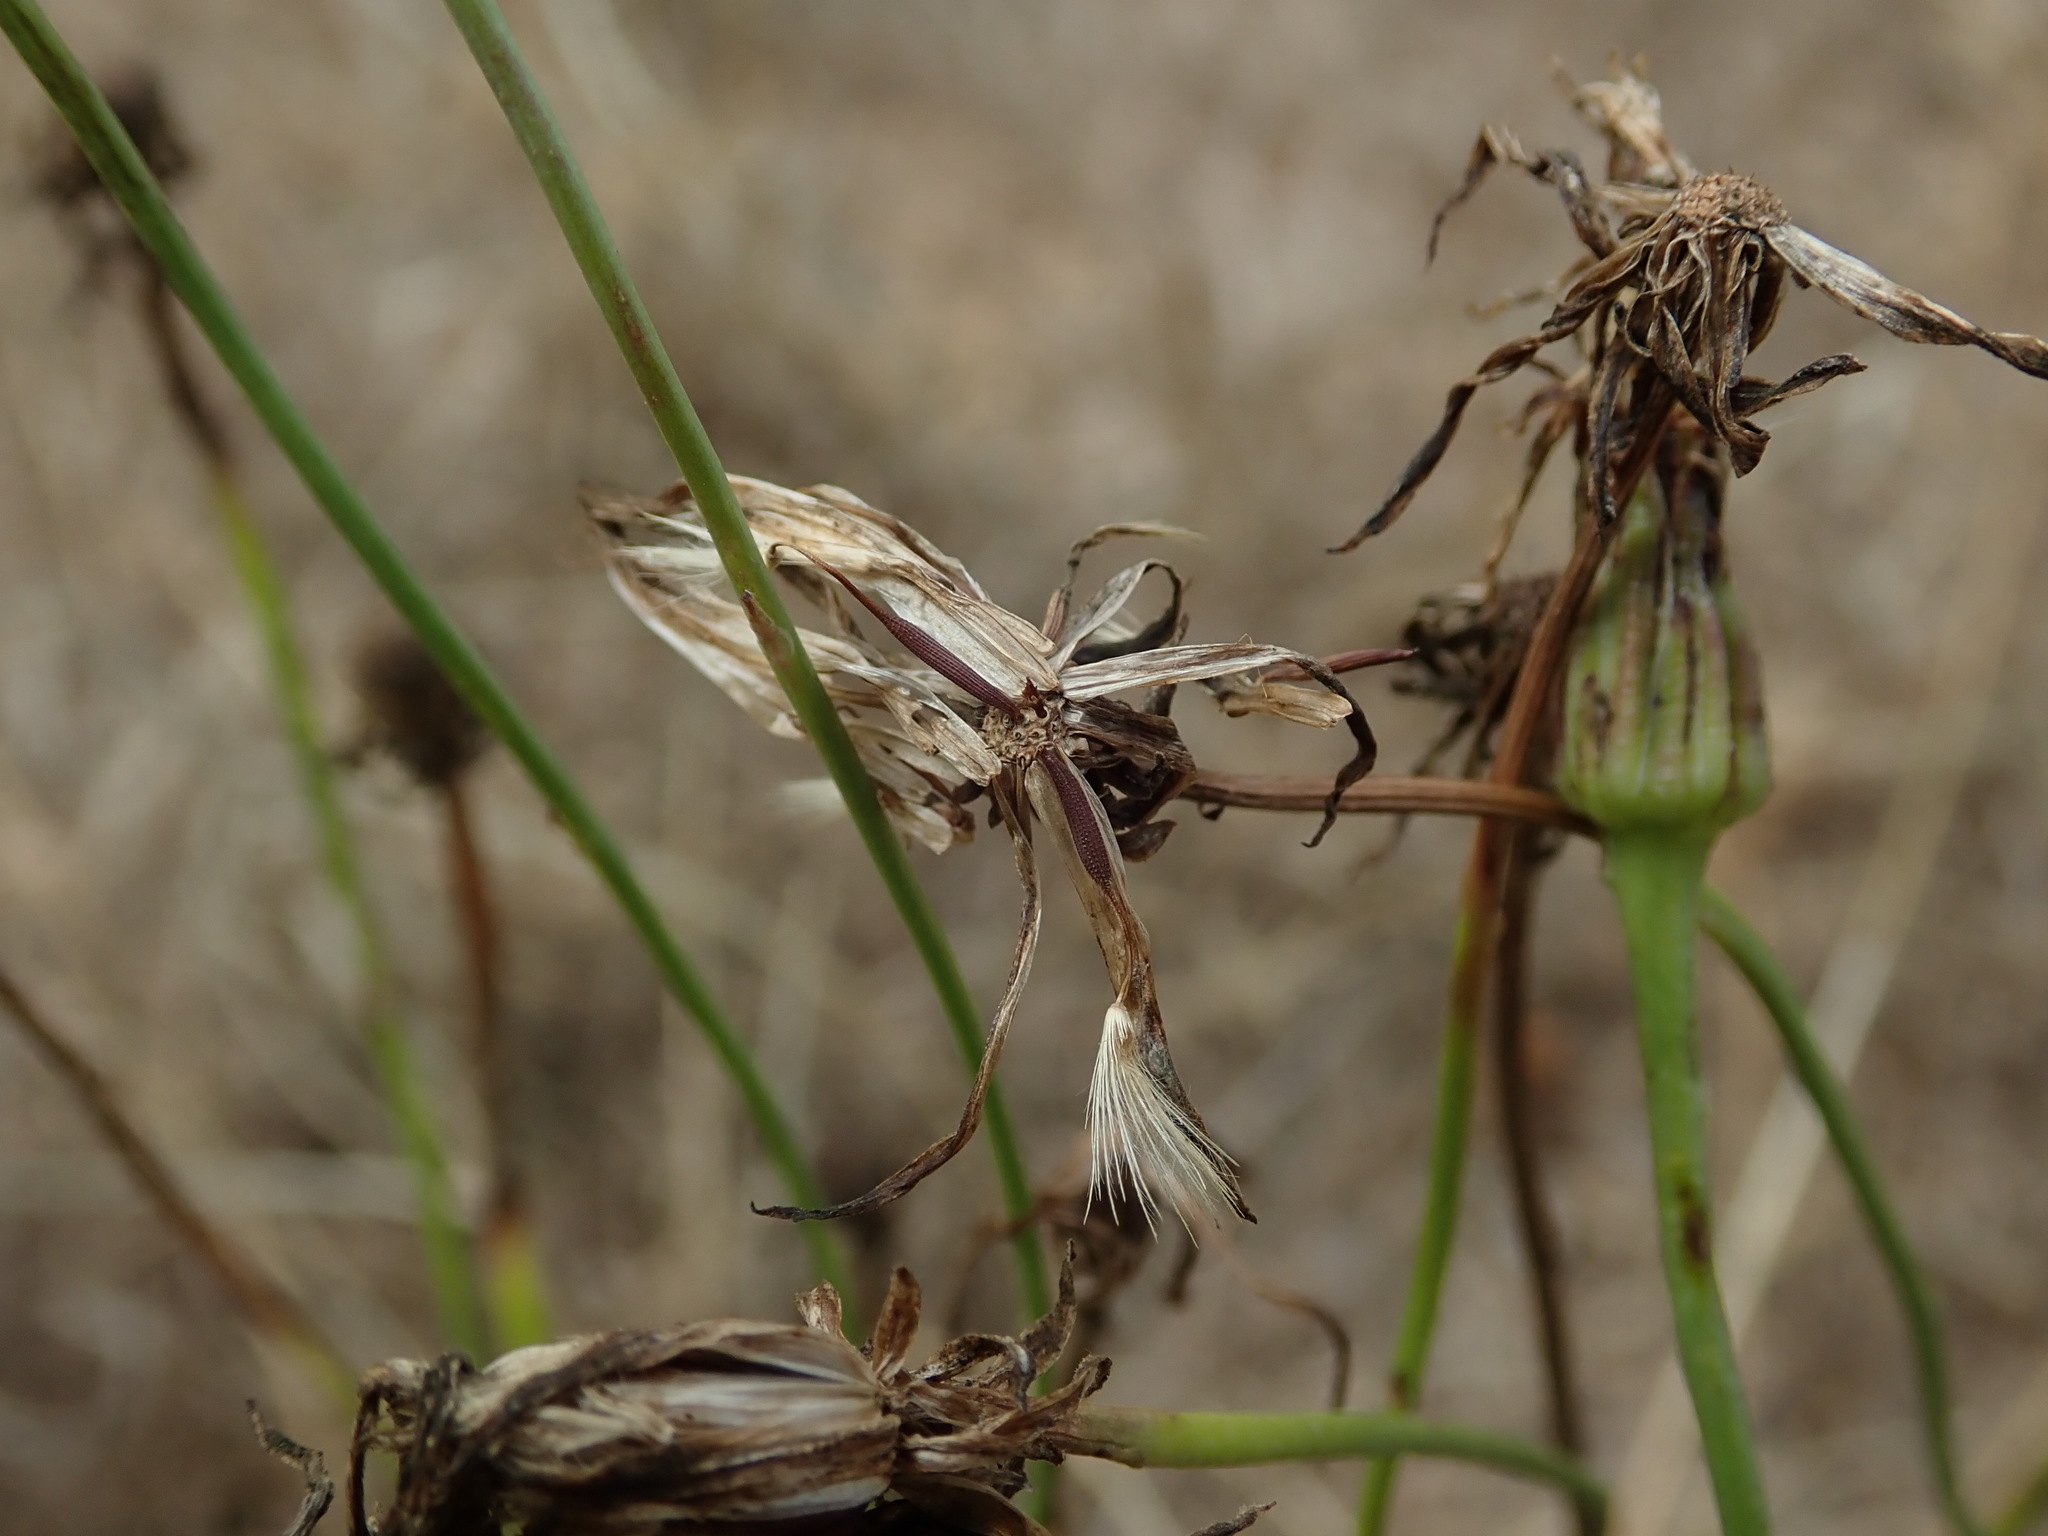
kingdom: Plantae
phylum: Tracheophyta
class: Magnoliopsida
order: Asterales
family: Asteraceae
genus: Hypochaeris
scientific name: Hypochaeris radicata
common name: Flatweed
